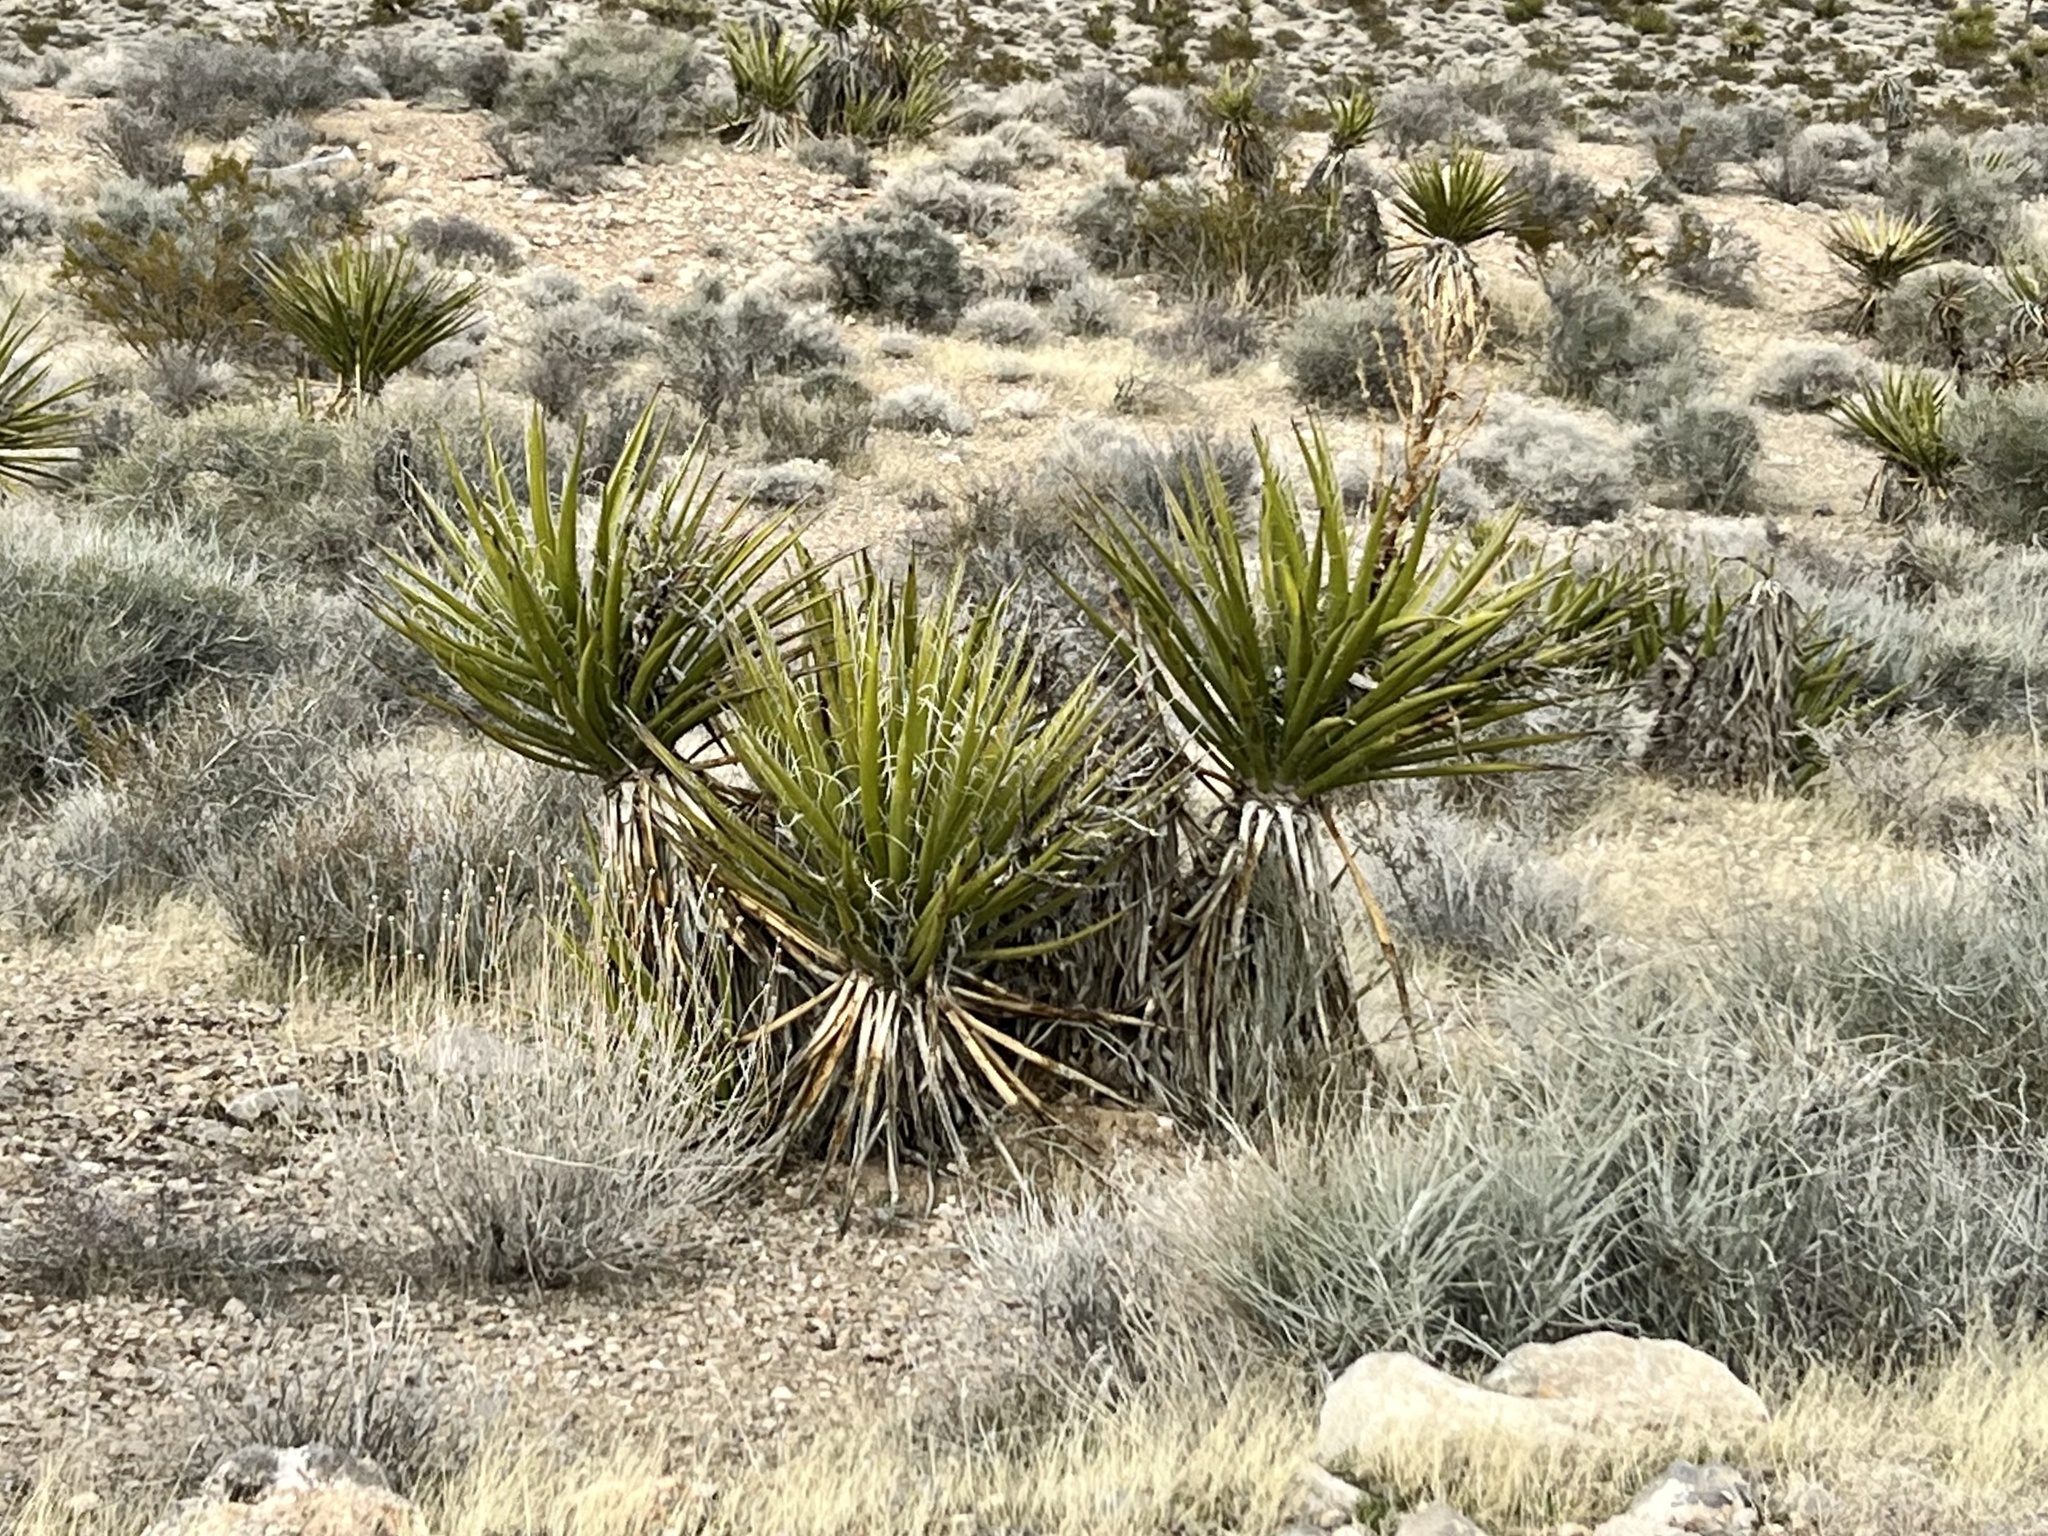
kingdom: Plantae
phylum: Tracheophyta
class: Liliopsida
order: Asparagales
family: Asparagaceae
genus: Yucca
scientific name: Yucca schidigera
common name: Mojave yucca
